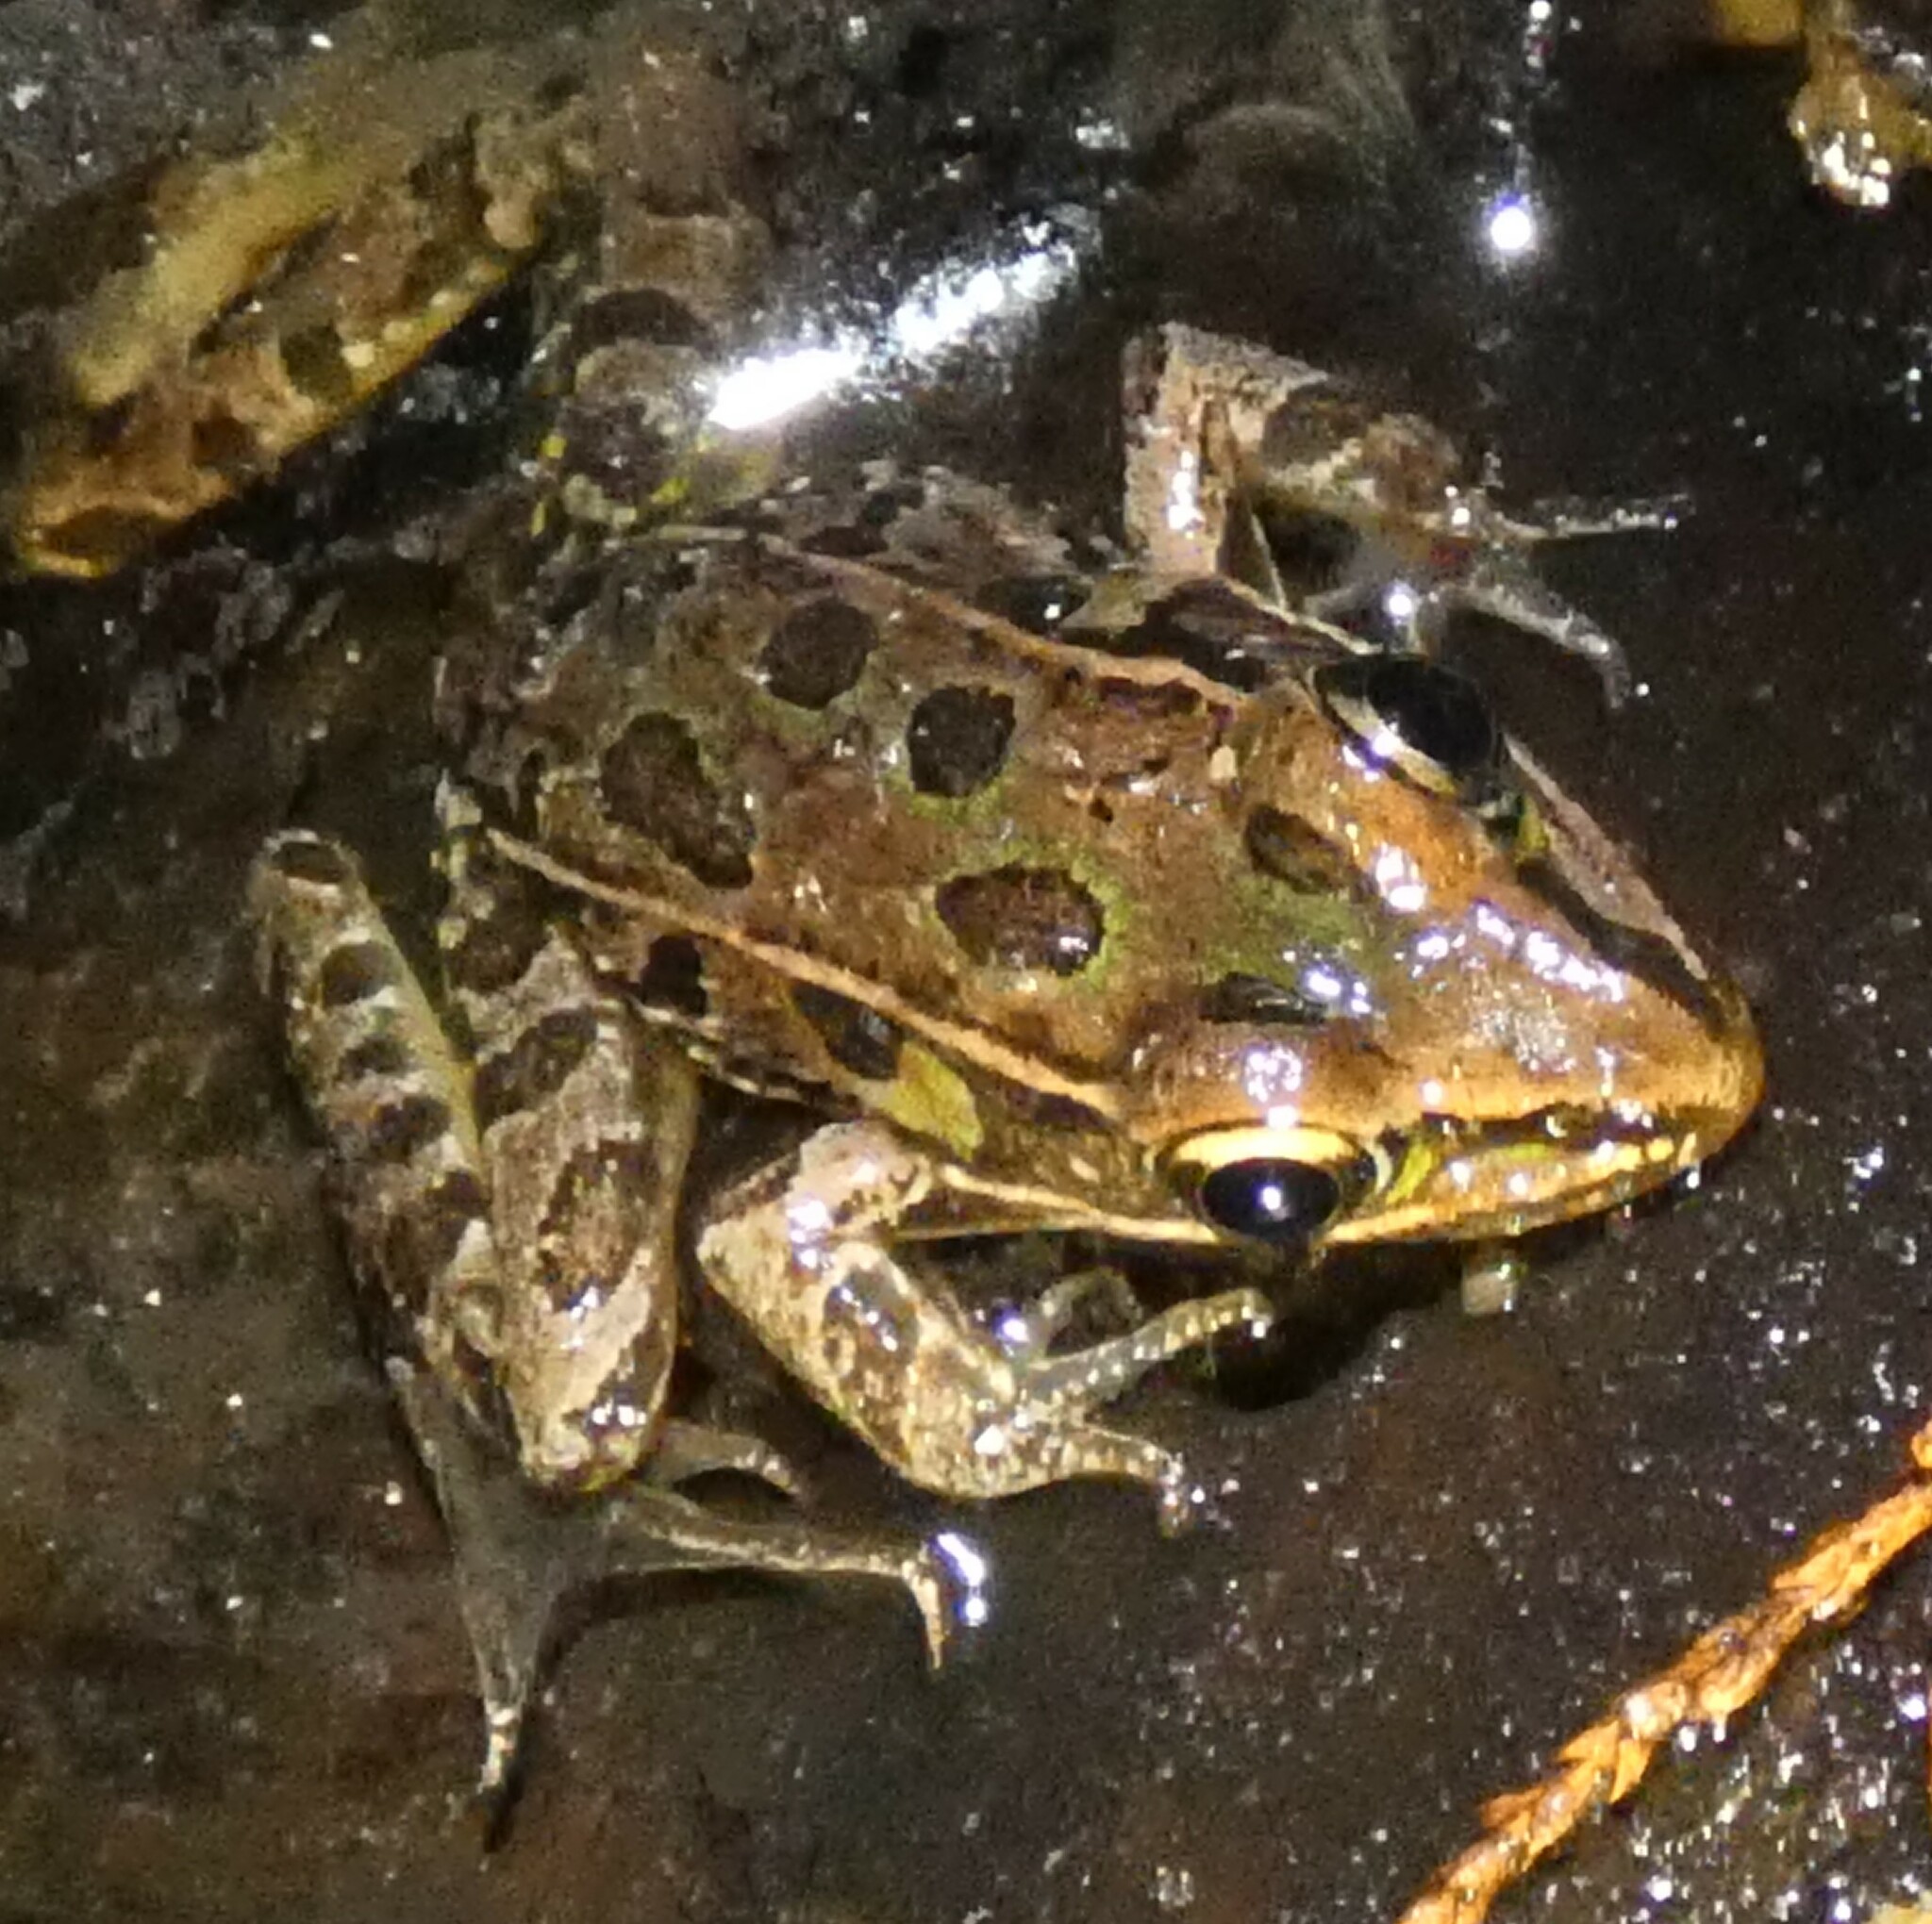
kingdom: Animalia
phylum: Chordata
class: Amphibia
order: Anura
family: Ranidae
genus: Lithobates
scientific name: Lithobates sphenocephalus
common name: Southern leopard frog
